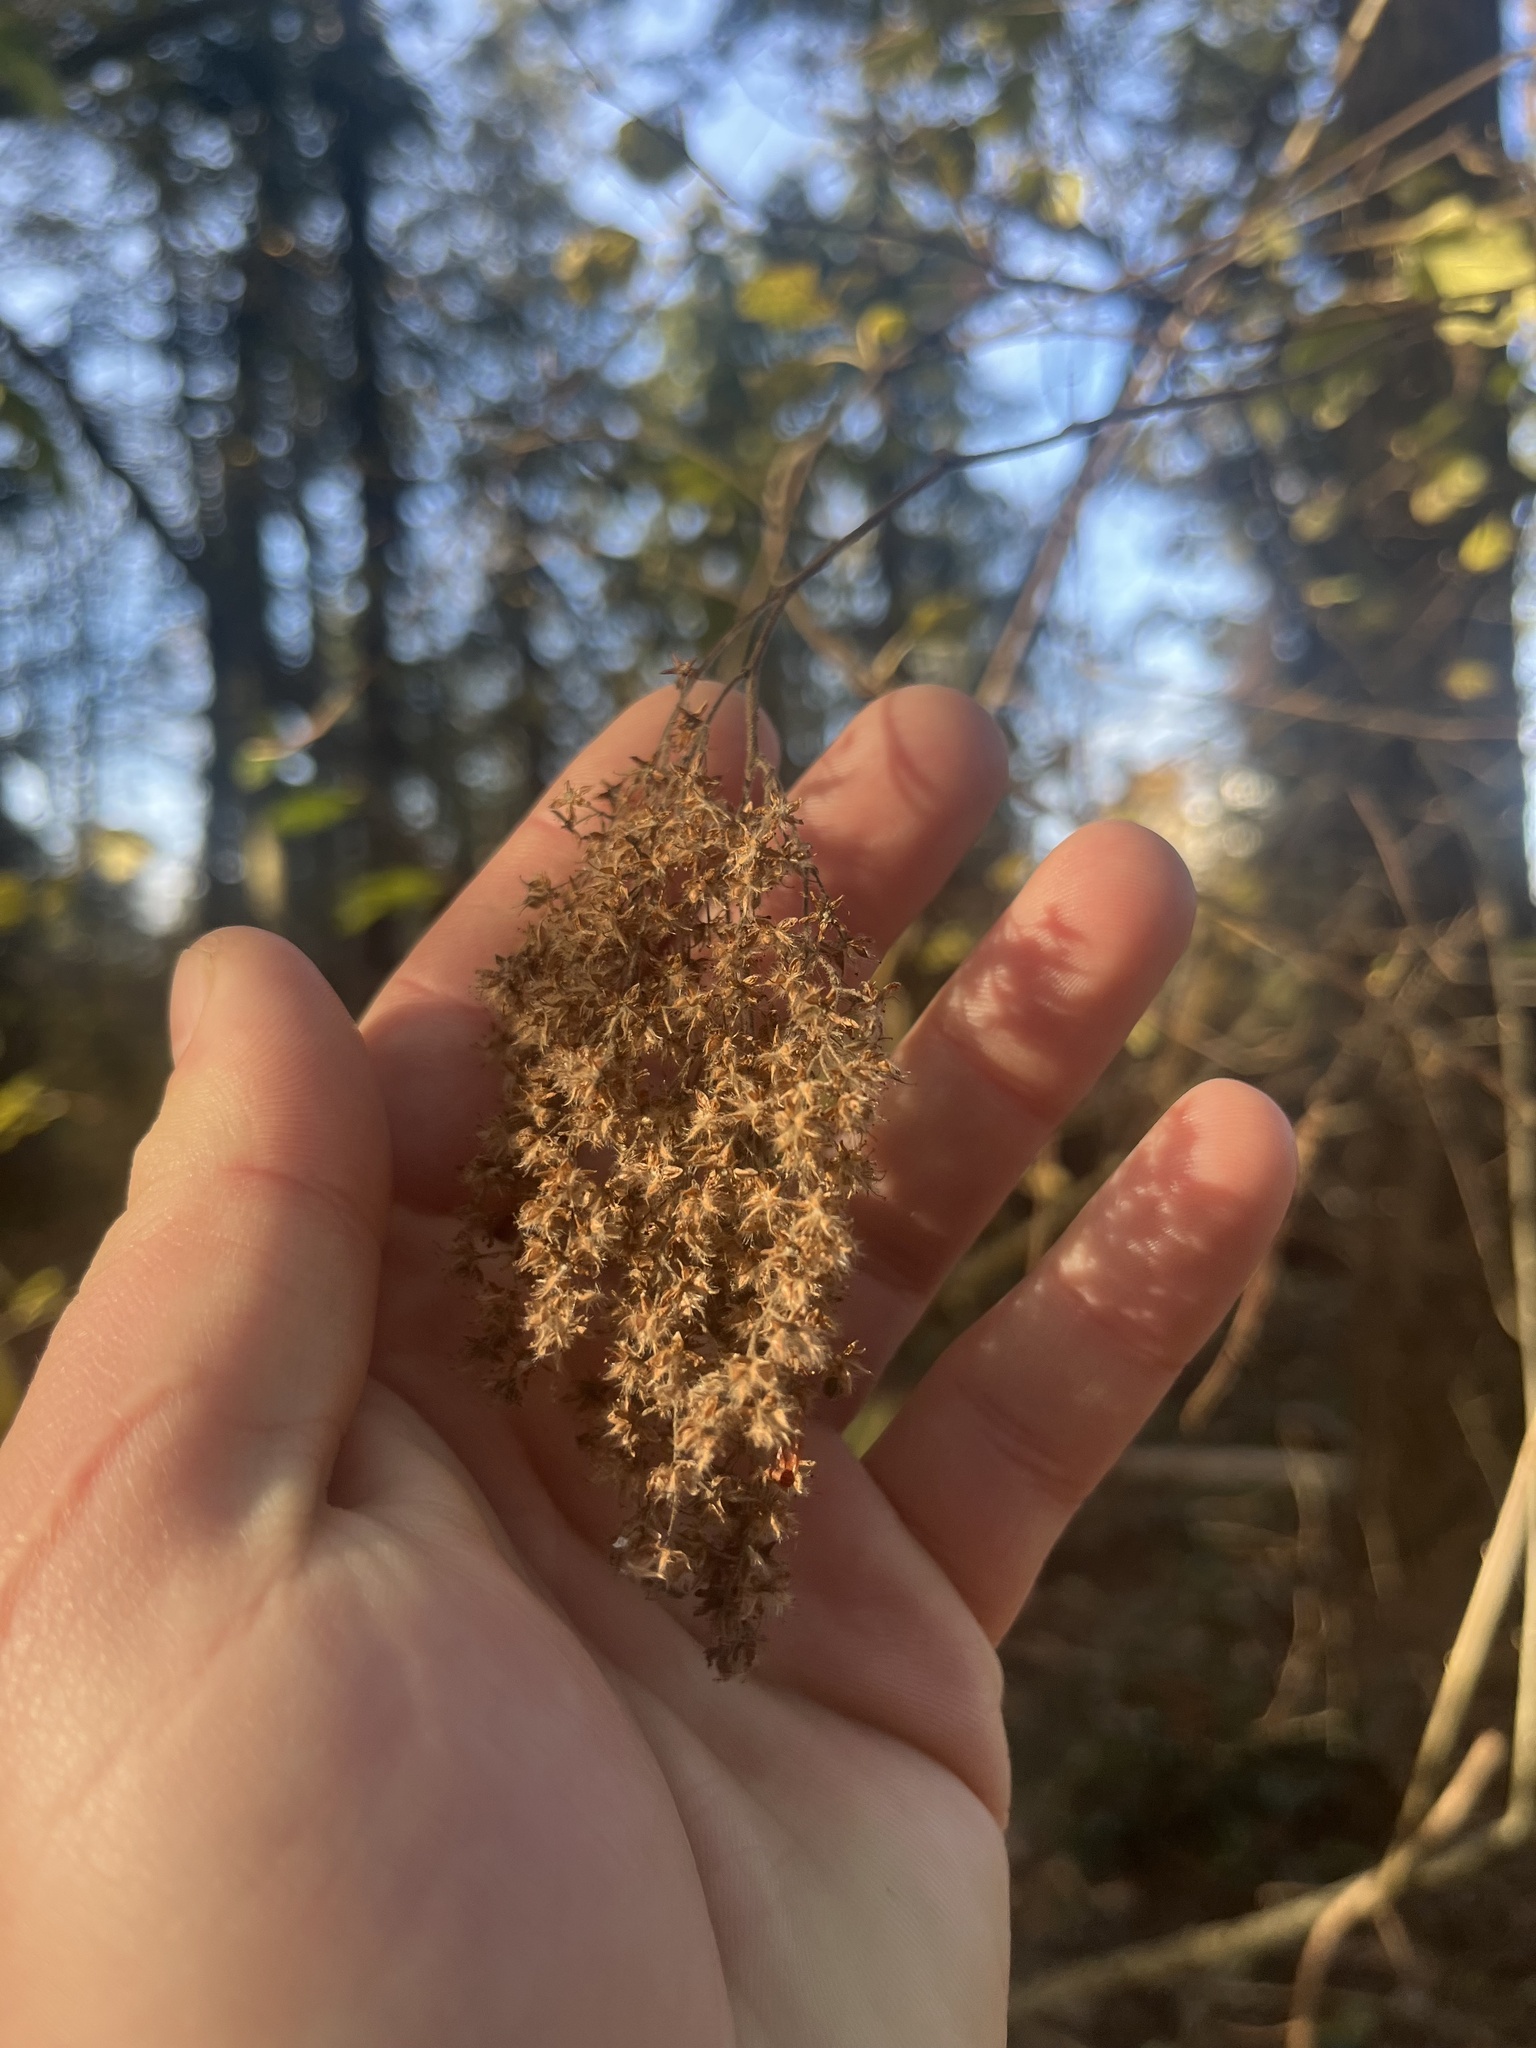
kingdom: Plantae
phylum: Tracheophyta
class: Magnoliopsida
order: Rosales
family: Rosaceae
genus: Holodiscus
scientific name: Holodiscus discolor
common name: Oceanspray
